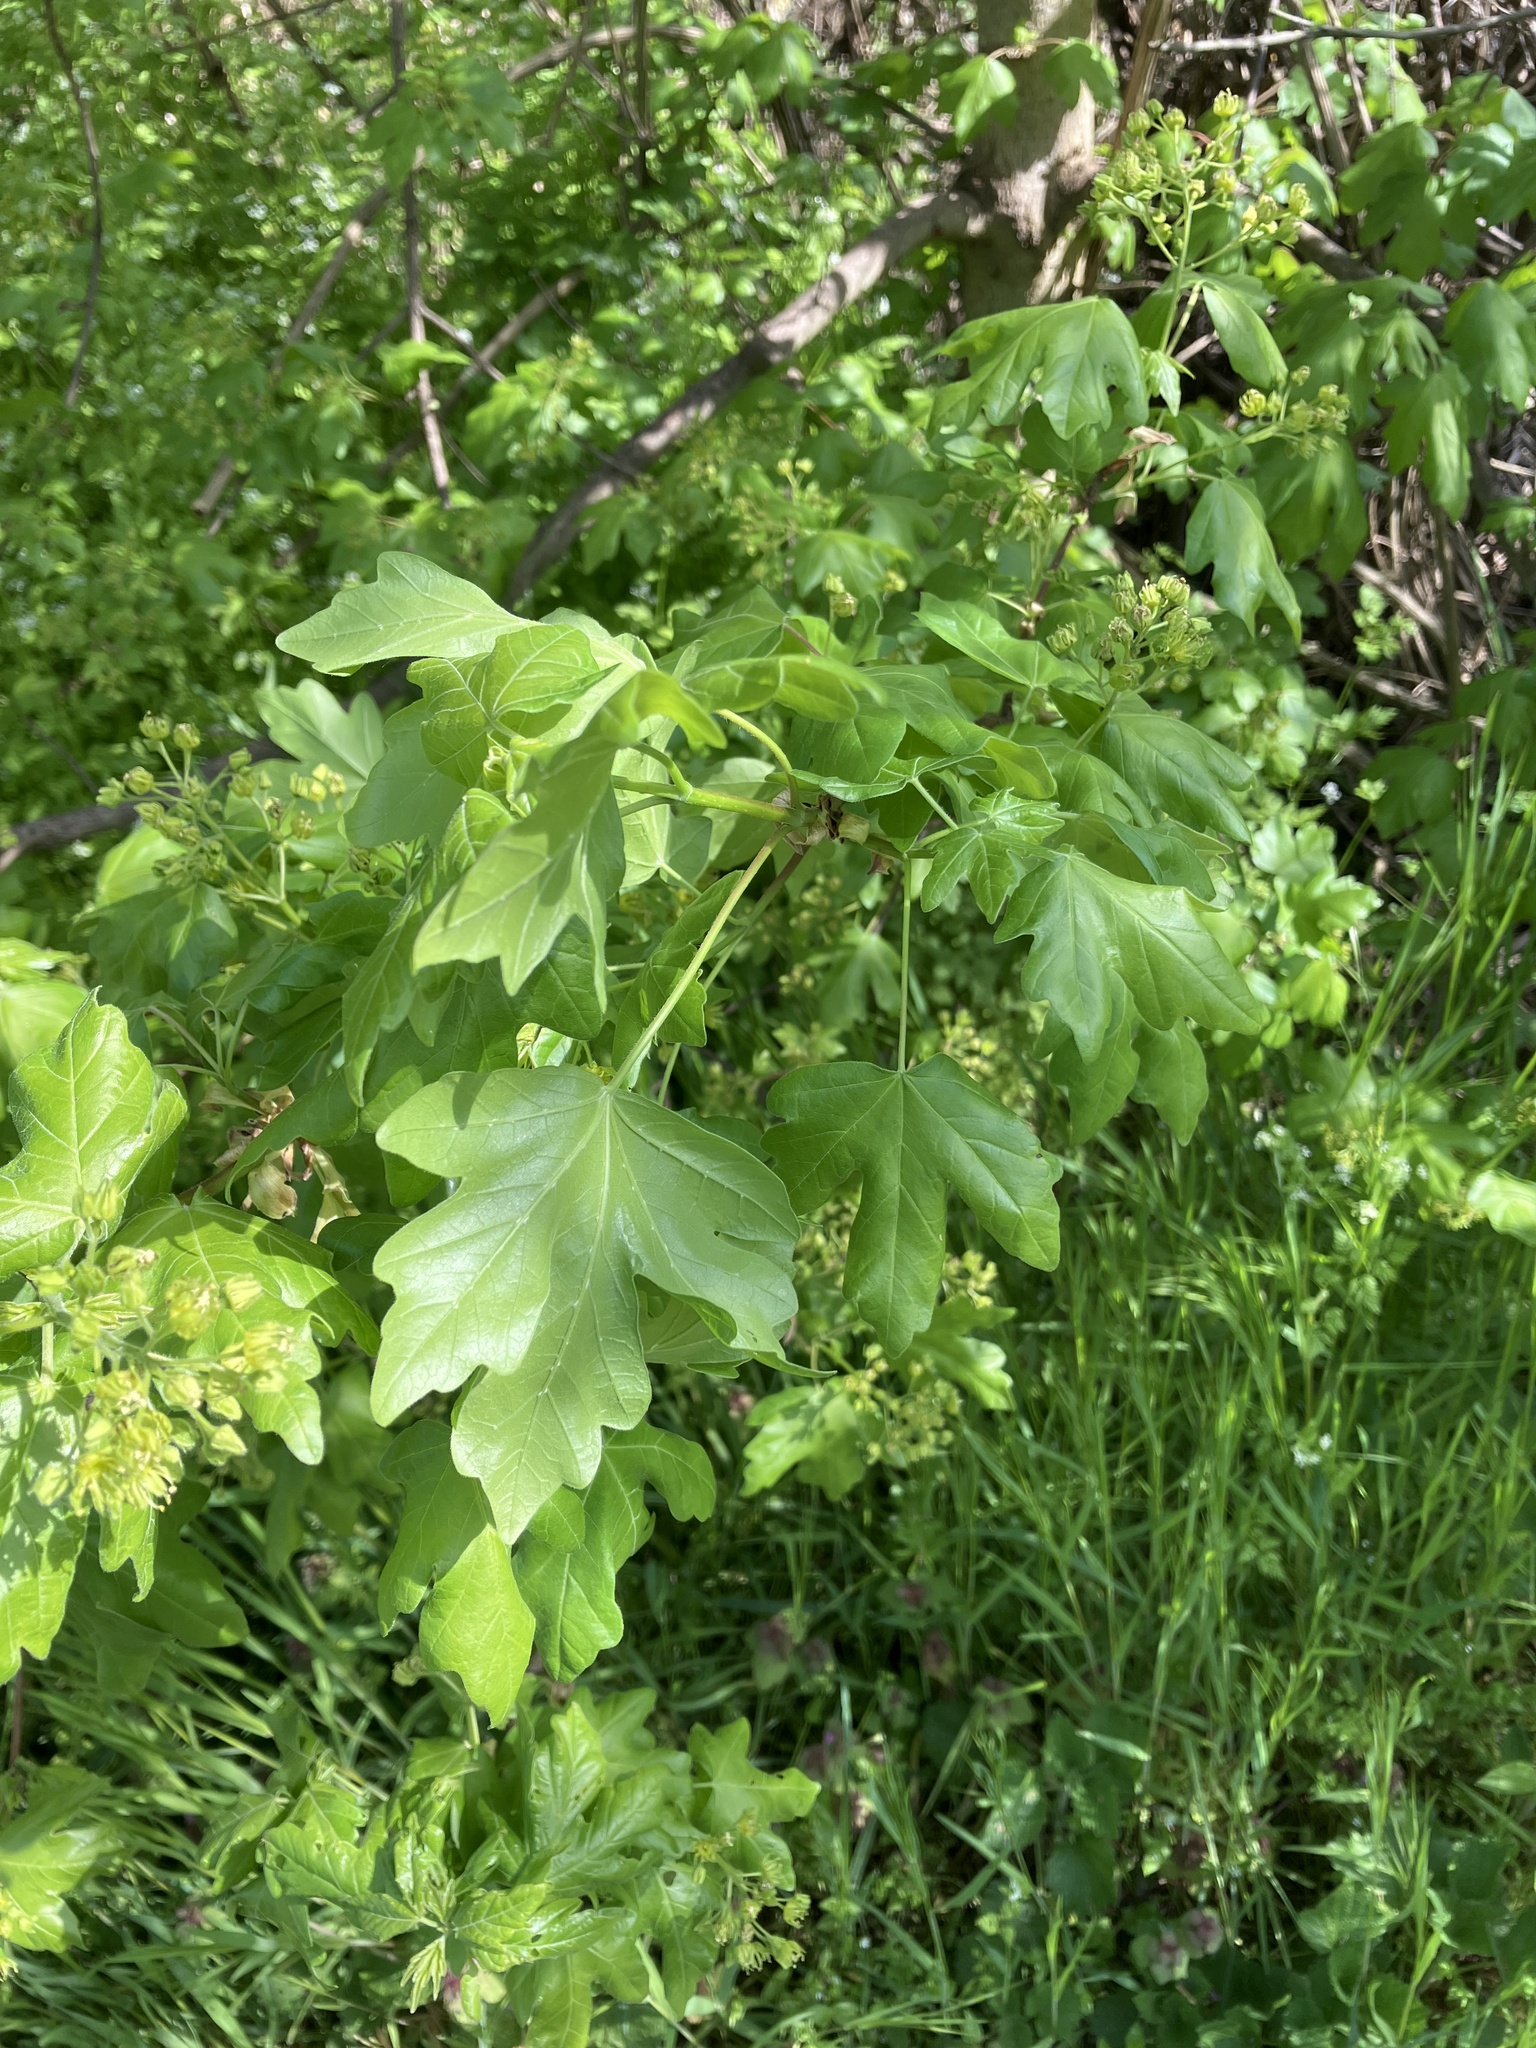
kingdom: Plantae
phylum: Tracheophyta
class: Magnoliopsida
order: Sapindales
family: Sapindaceae
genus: Acer
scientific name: Acer campestre
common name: Field maple
